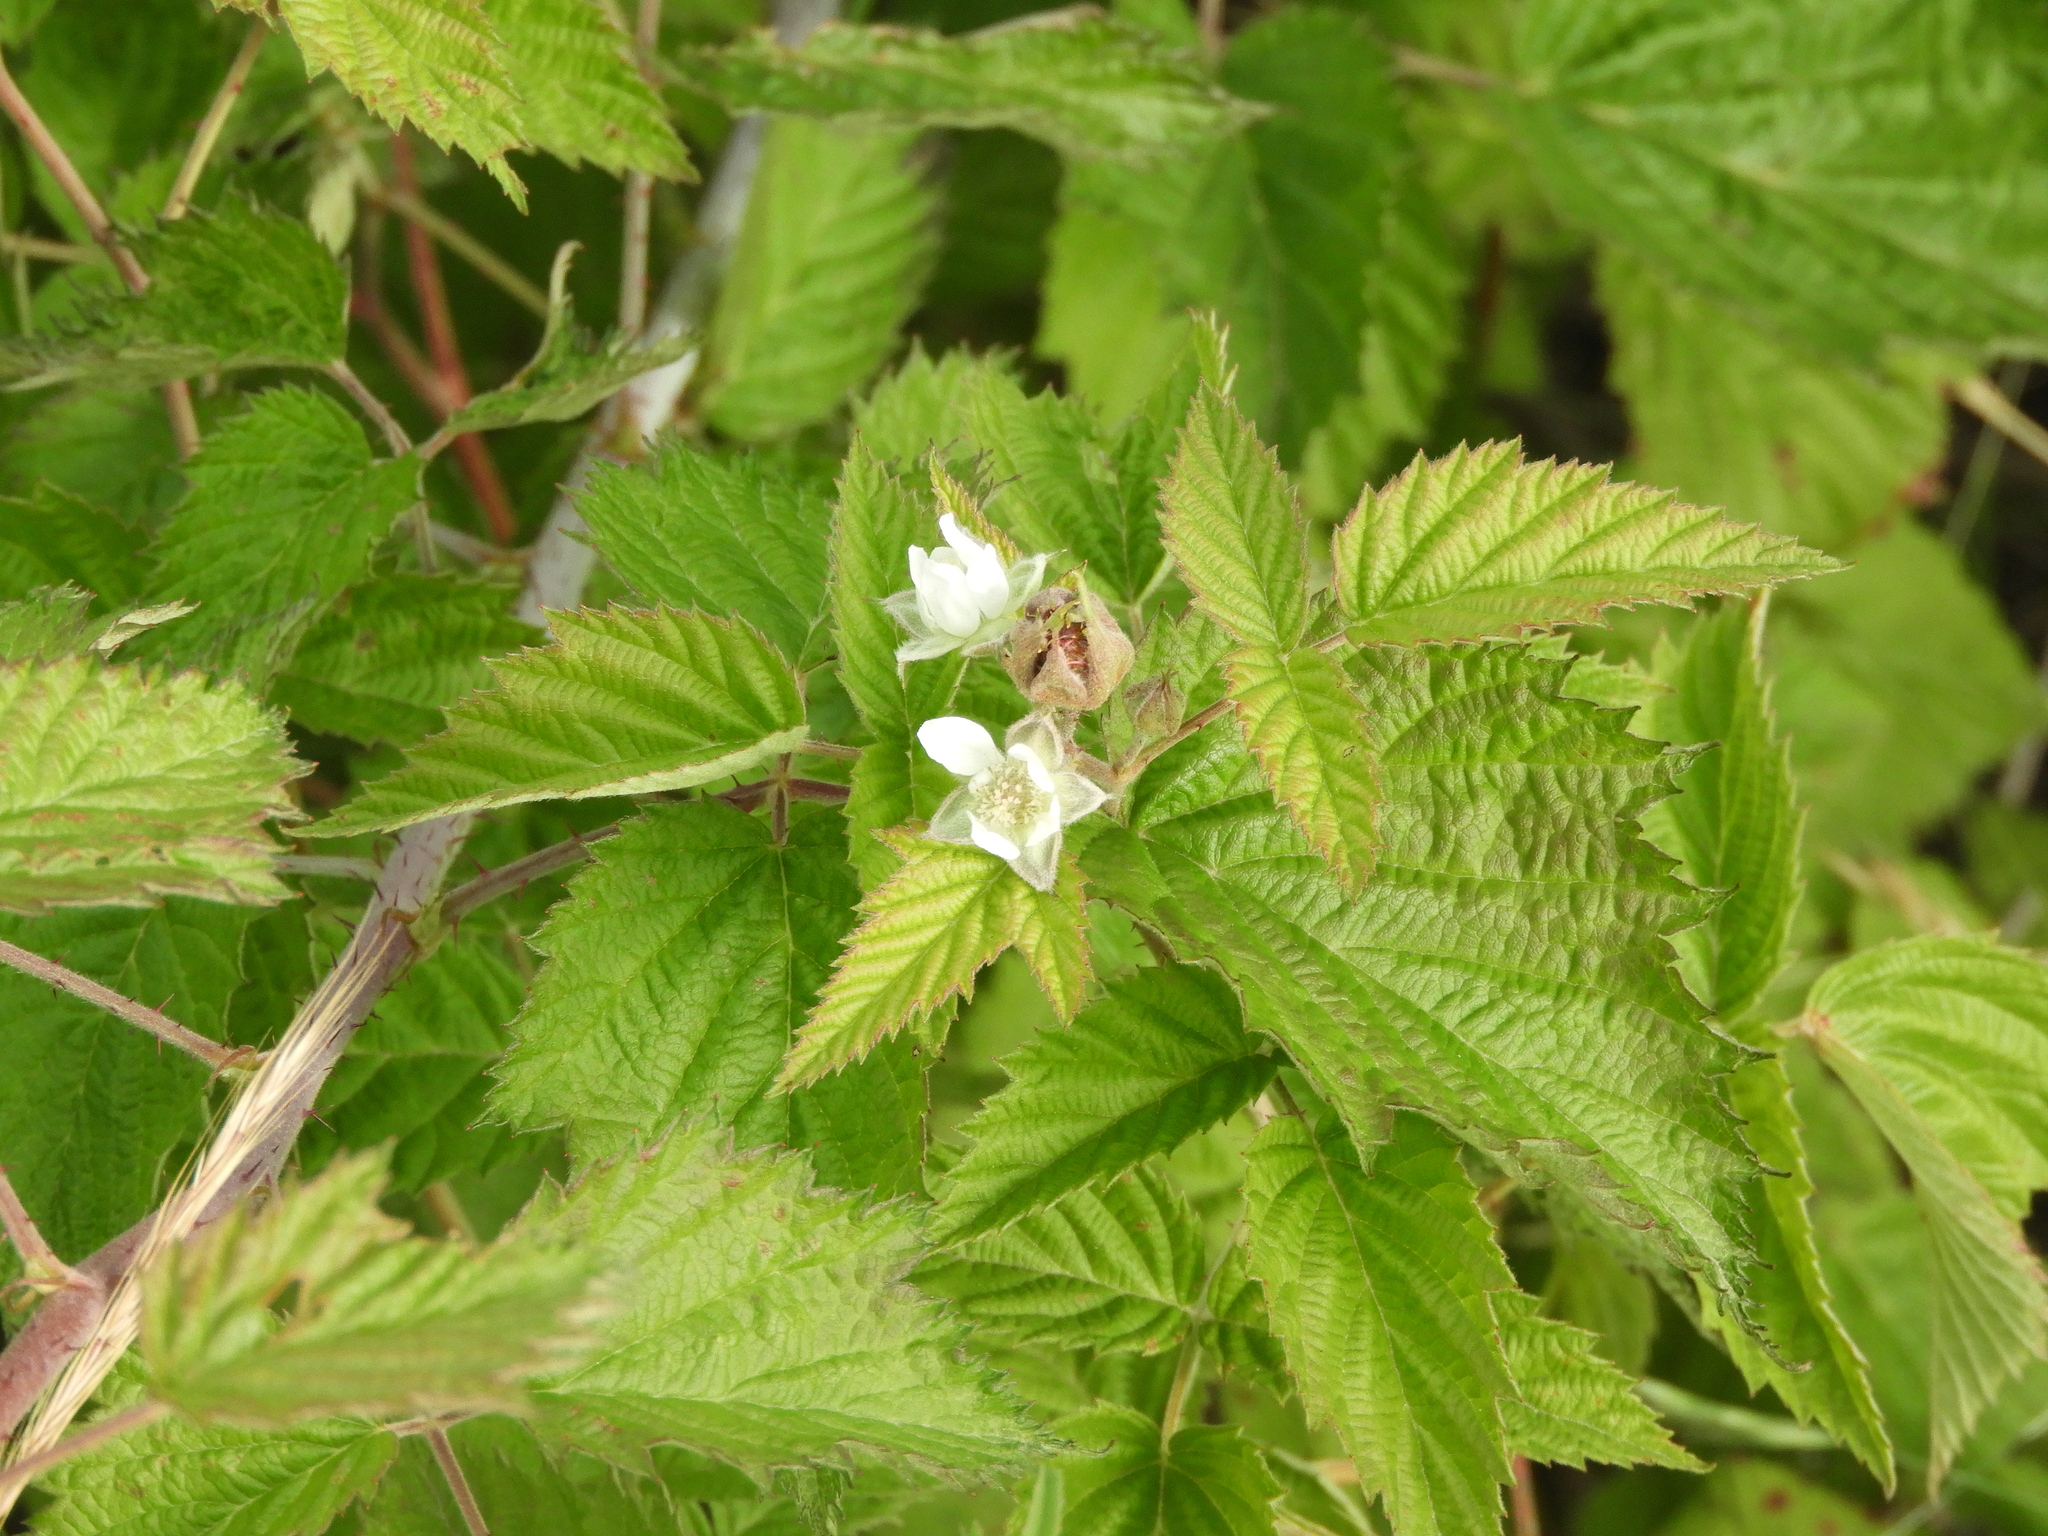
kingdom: Plantae
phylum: Tracheophyta
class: Magnoliopsida
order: Rosales
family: Rosaceae
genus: Rubus
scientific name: Rubus ursinus
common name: Pacific blackberry
